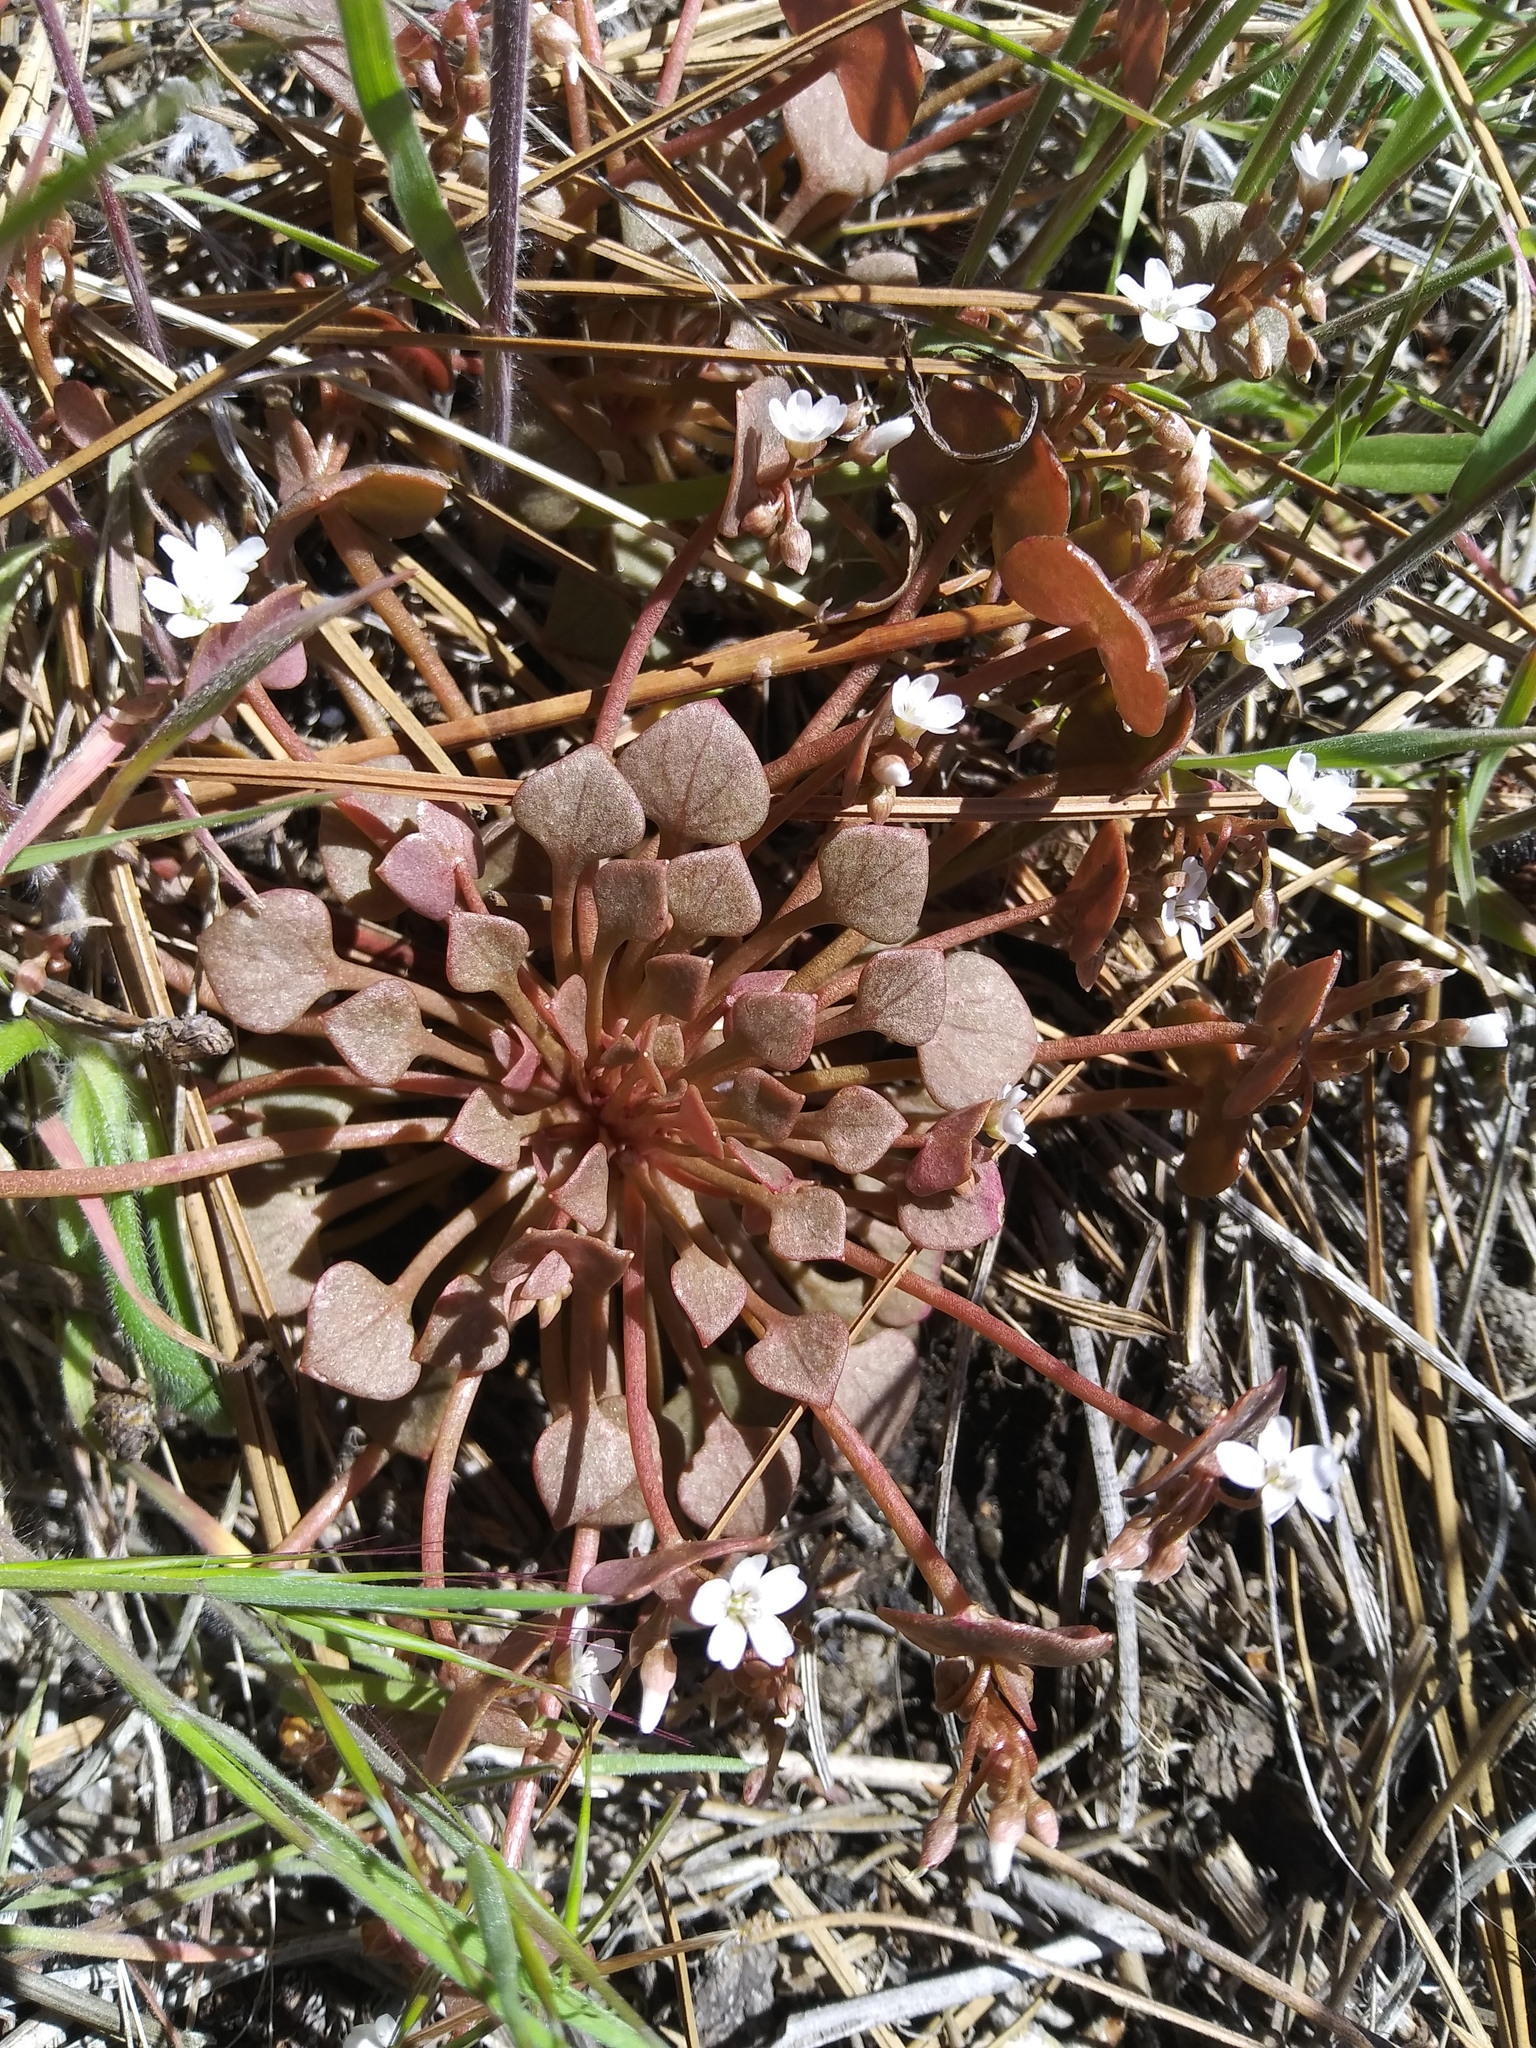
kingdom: Plantae
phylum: Tracheophyta
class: Magnoliopsida
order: Caryophyllales
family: Montiaceae
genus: Claytonia
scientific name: Claytonia rubra
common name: Erubescent miner's-lettuce
